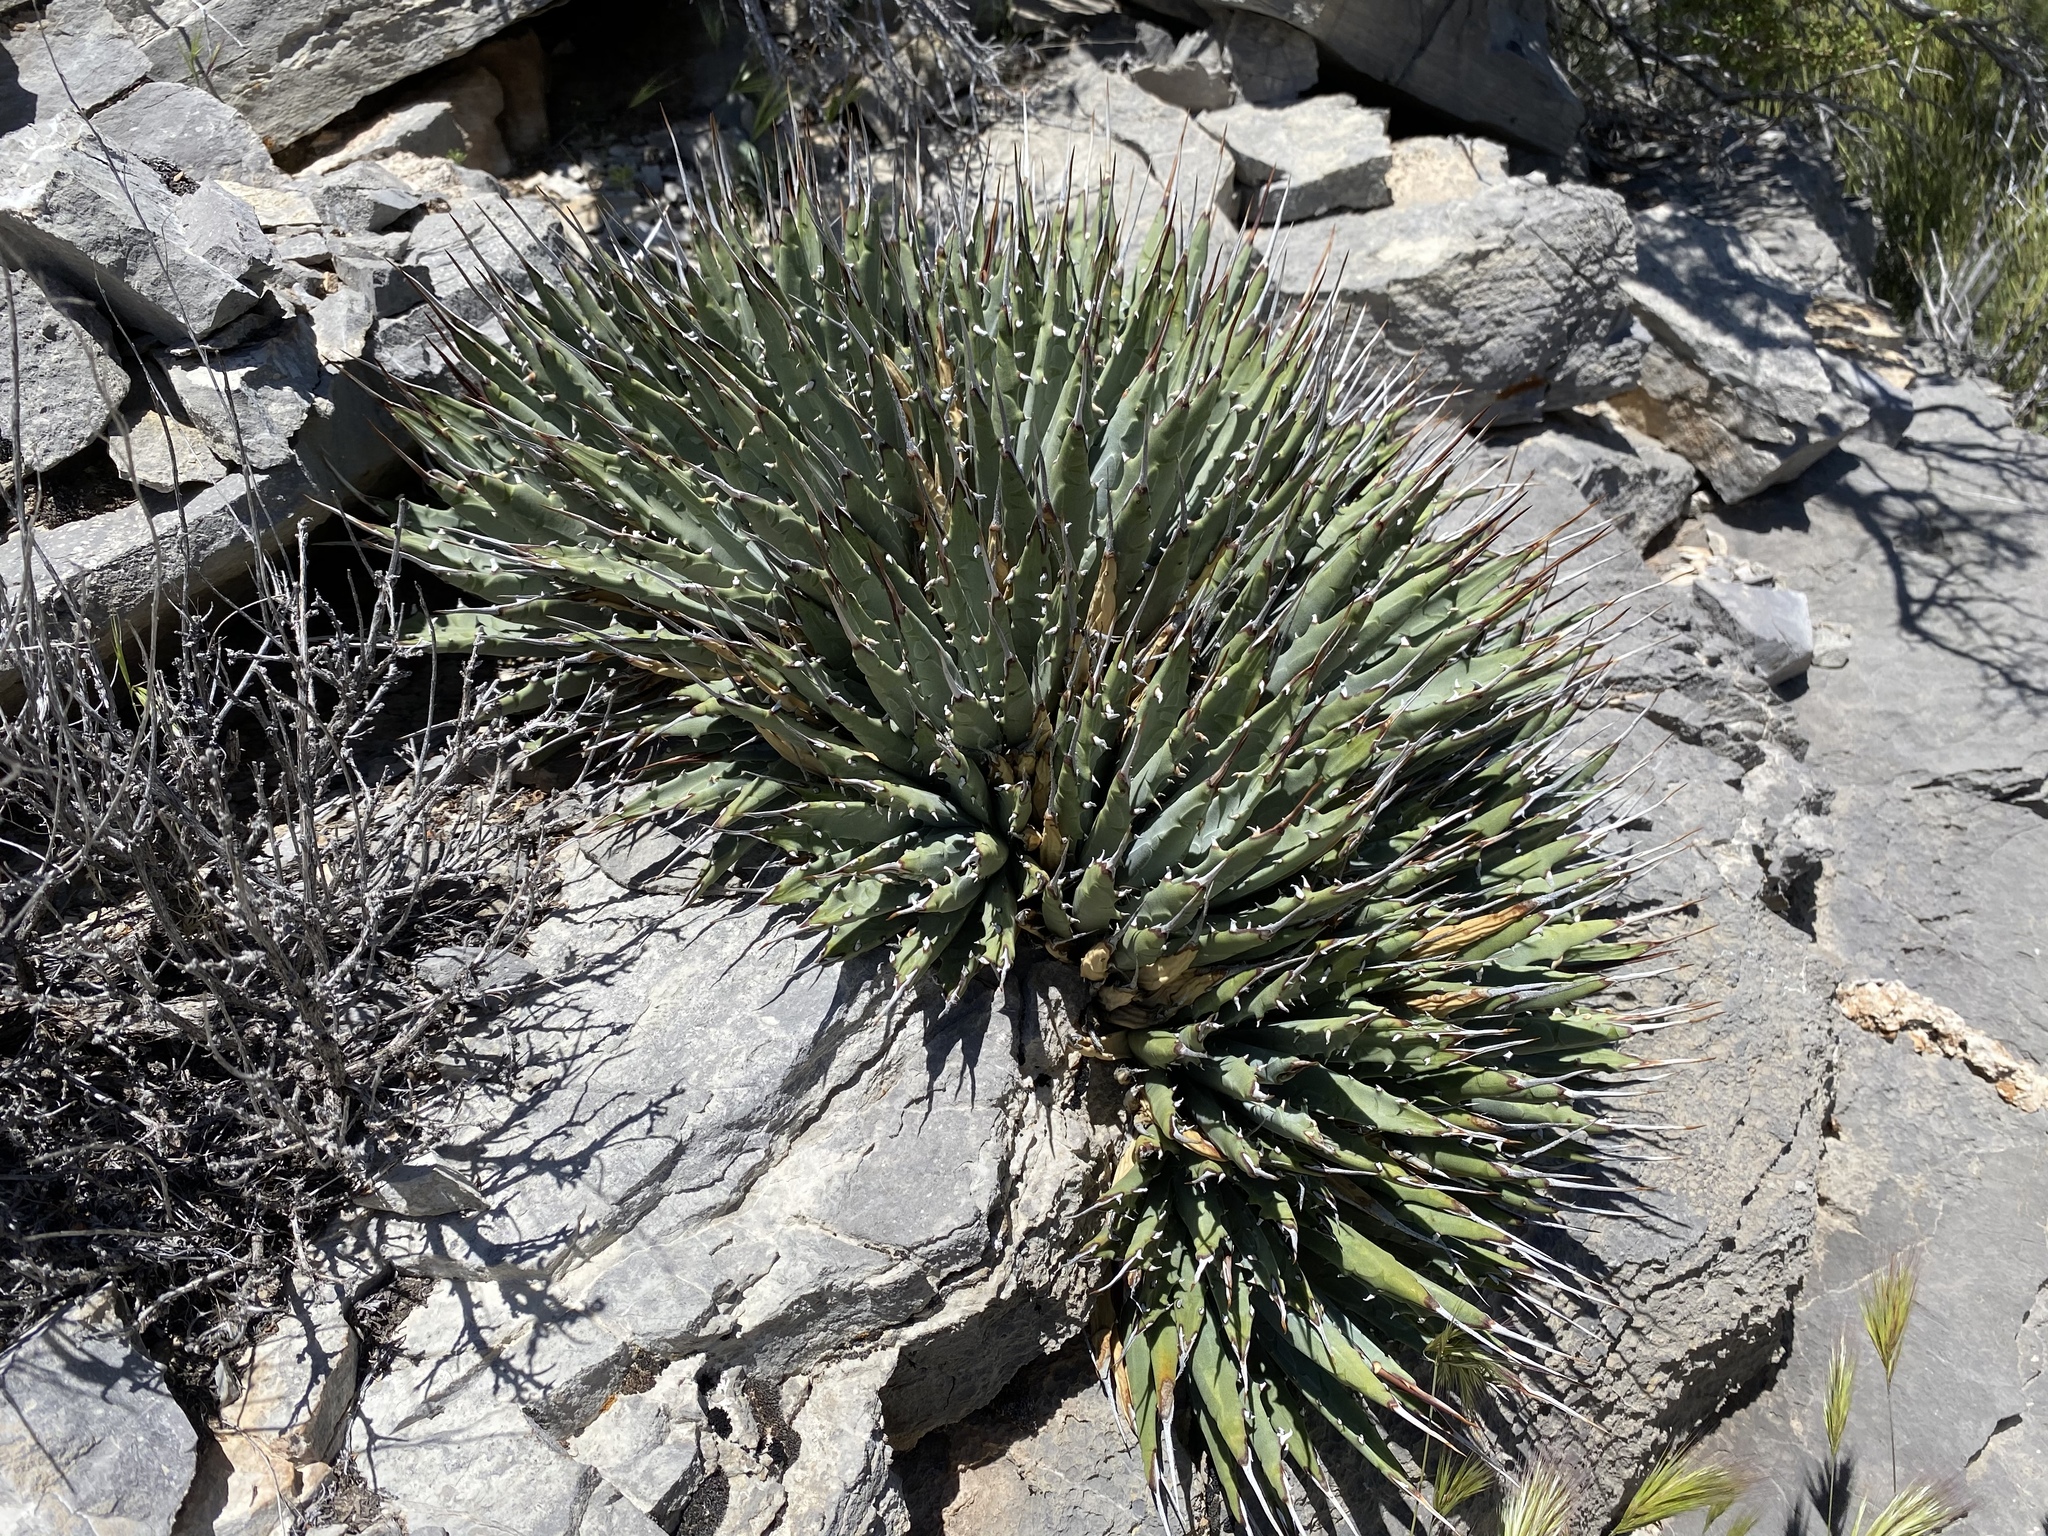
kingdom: Plantae
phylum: Tracheophyta
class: Liliopsida
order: Asparagales
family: Asparagaceae
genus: Agave
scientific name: Agave utahensis
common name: Utah agave
